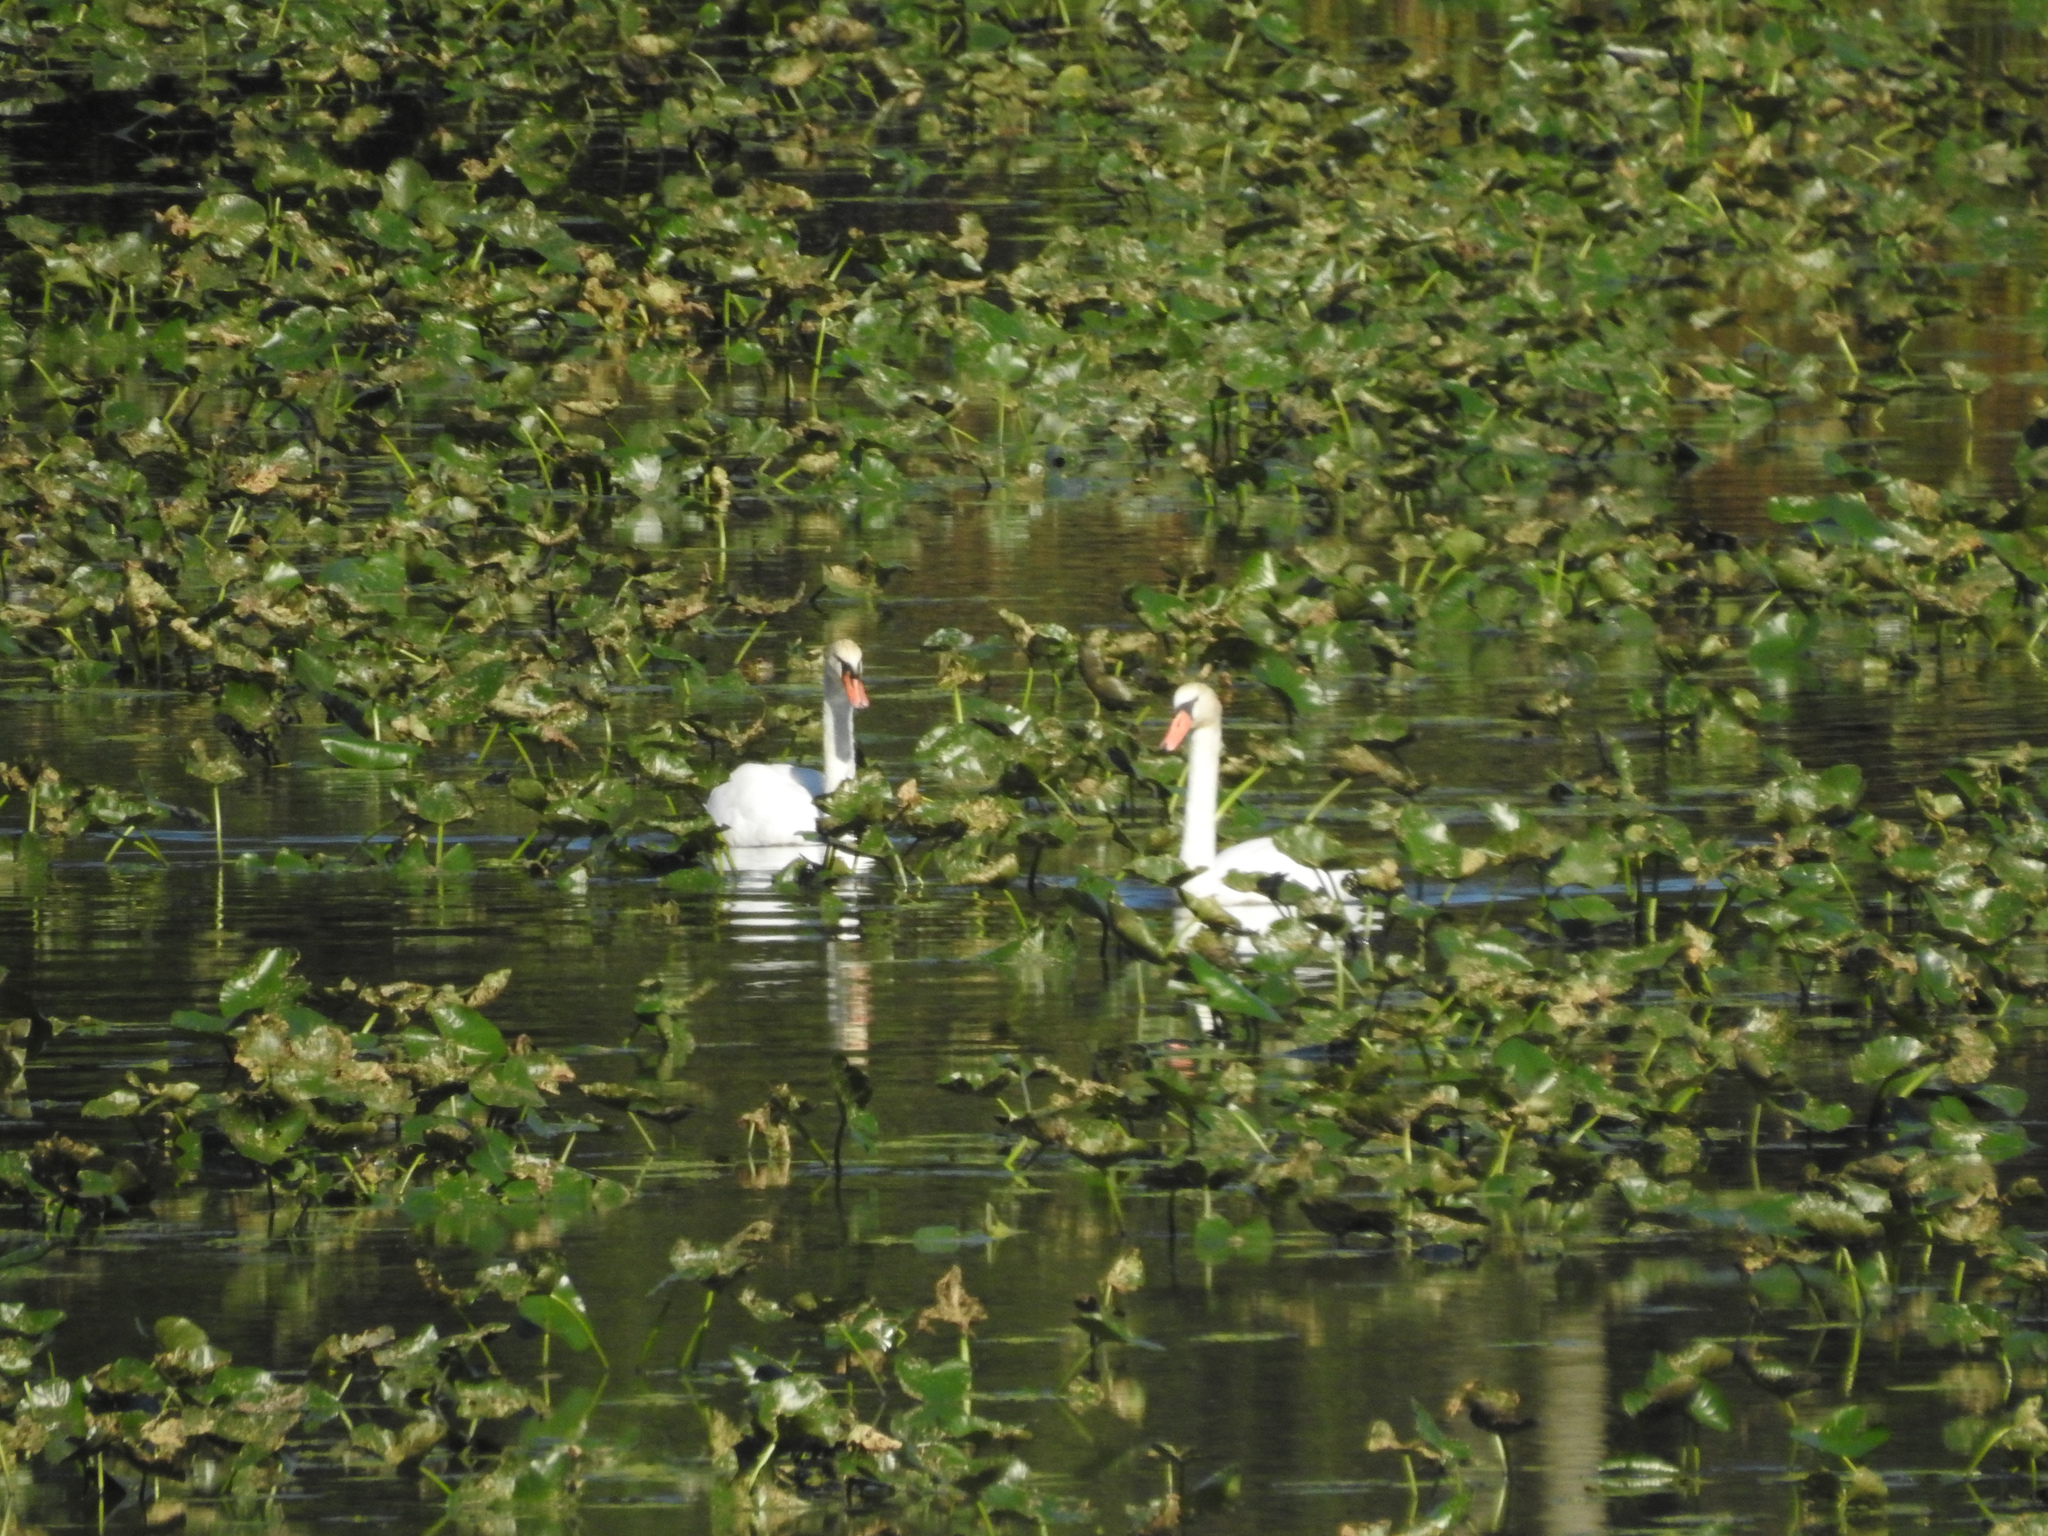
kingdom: Animalia
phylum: Chordata
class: Aves
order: Anseriformes
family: Anatidae
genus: Cygnus
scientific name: Cygnus olor
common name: Mute swan
